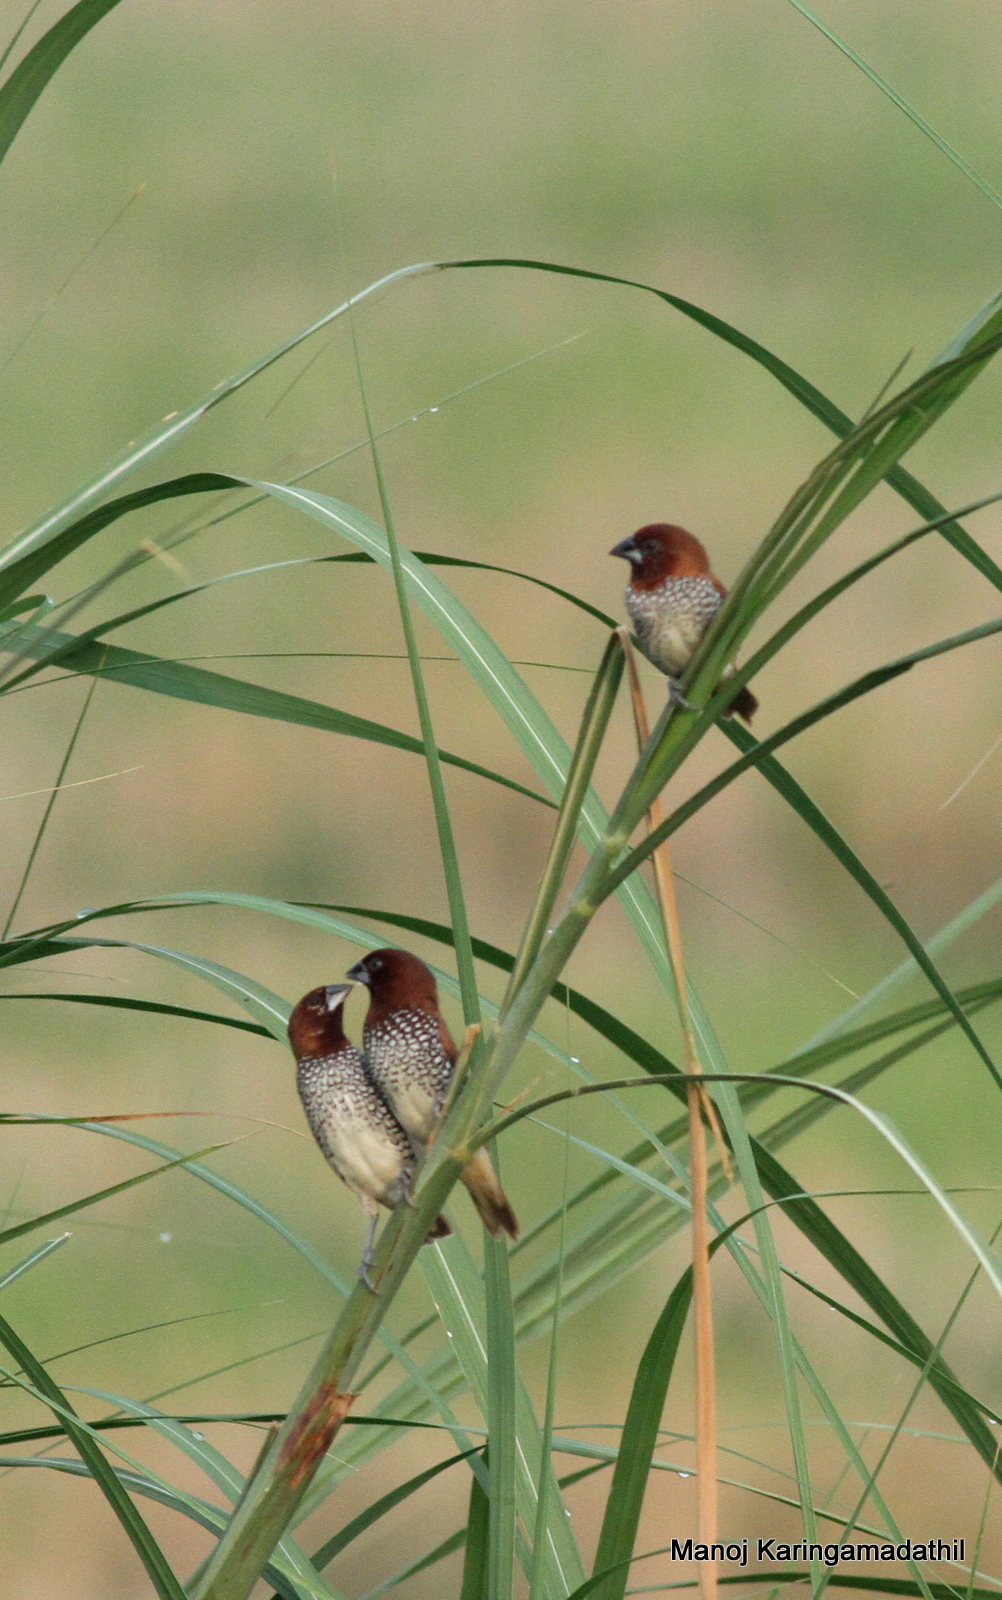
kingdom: Animalia
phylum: Chordata
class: Aves
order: Passeriformes
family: Estrildidae
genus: Lonchura
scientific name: Lonchura punctulata
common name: Scaly-breasted munia
